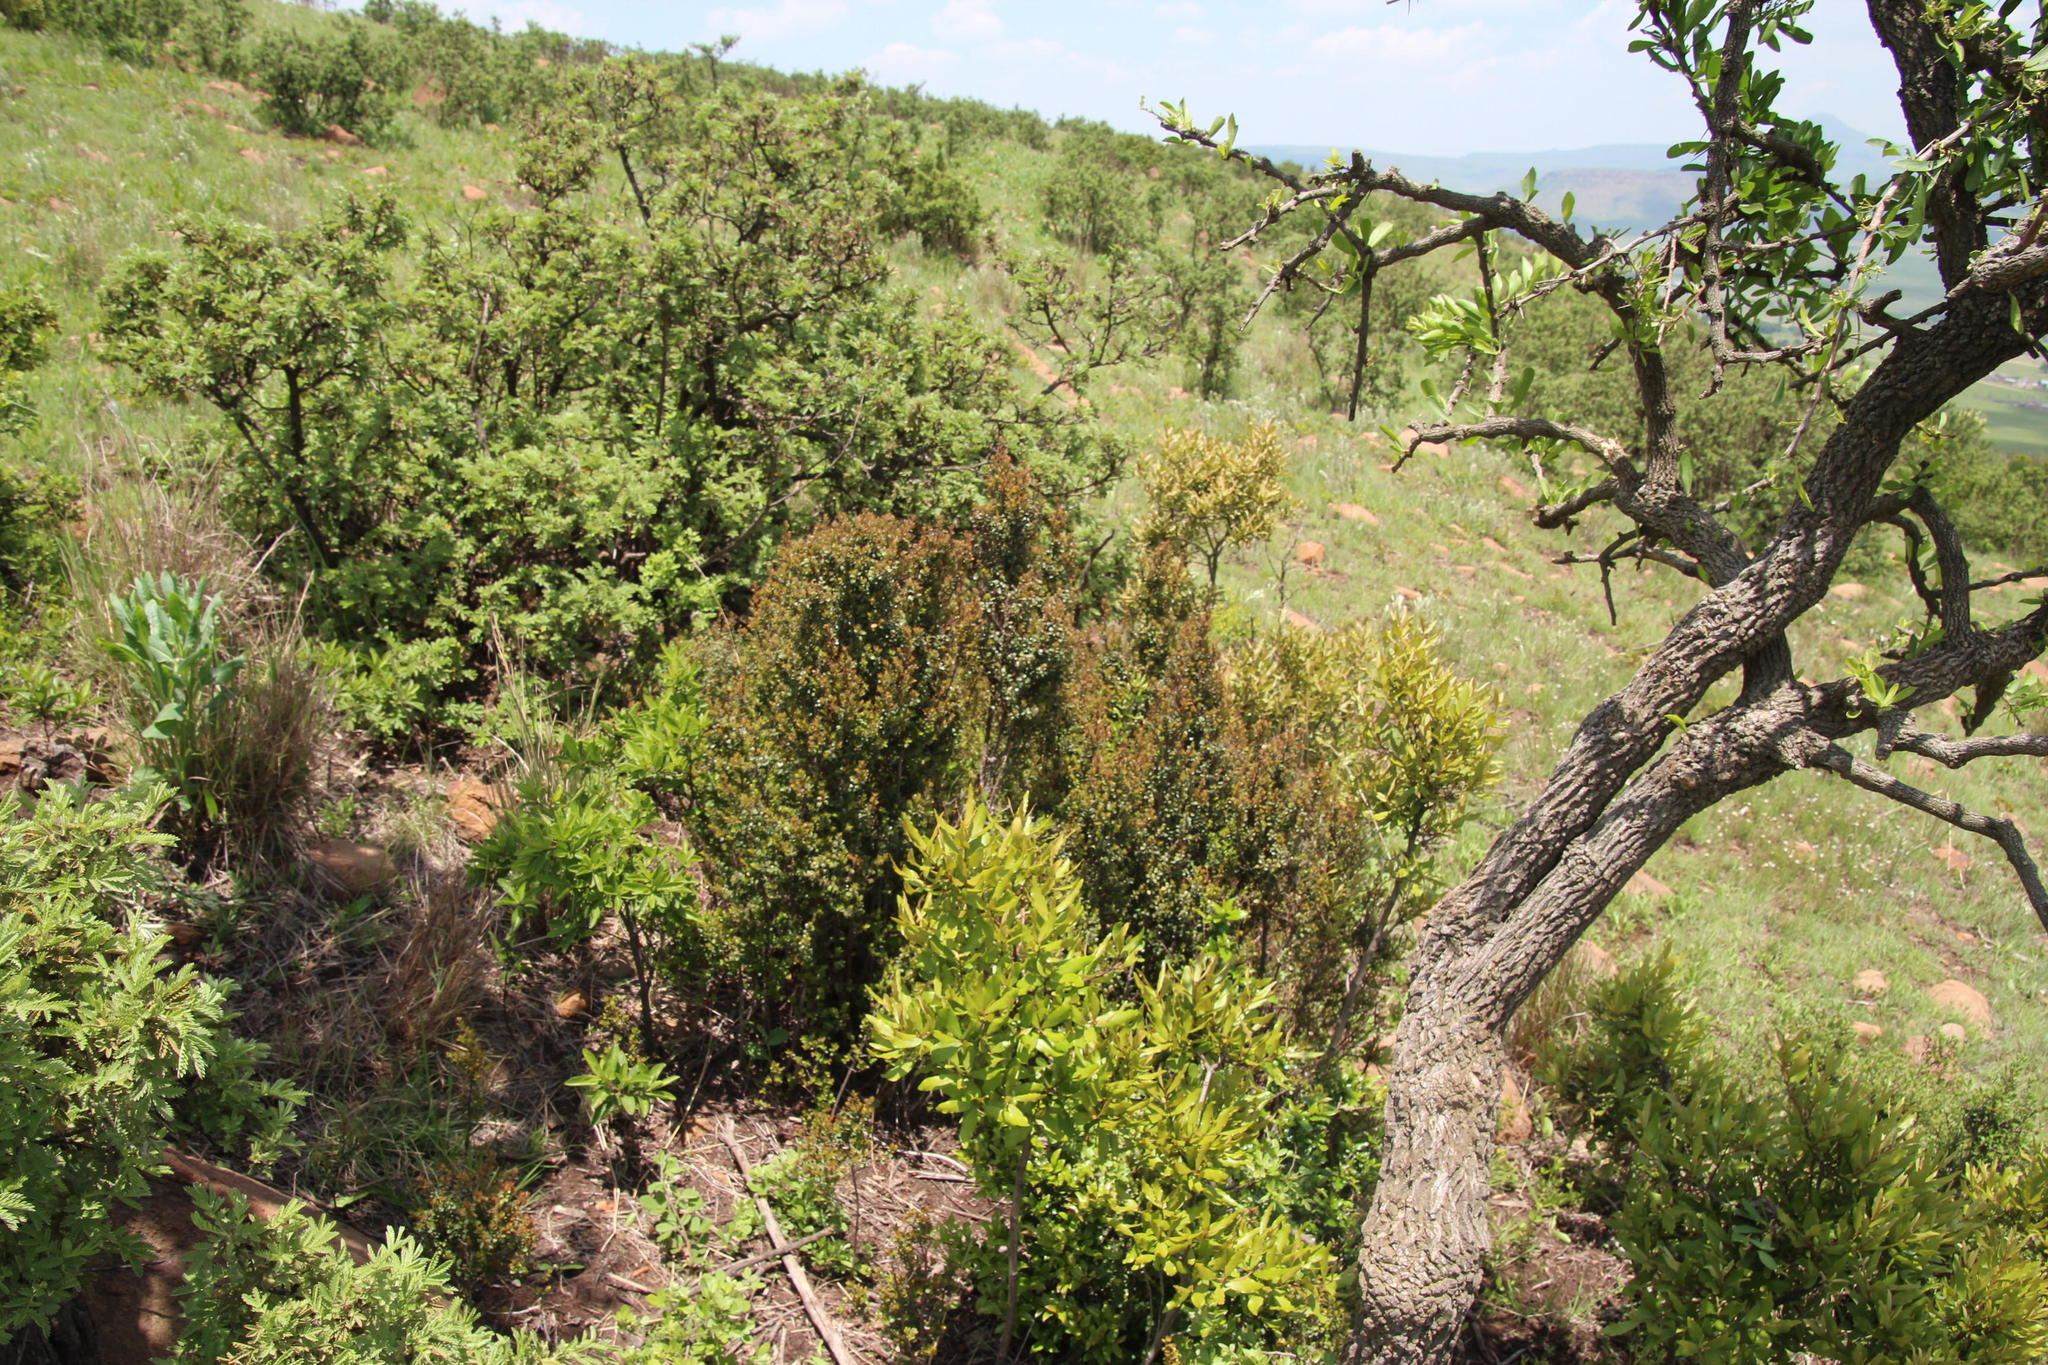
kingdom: Plantae
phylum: Tracheophyta
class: Magnoliopsida
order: Ericales
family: Primulaceae
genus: Myrsine
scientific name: Myrsine africana
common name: African-boxwood
